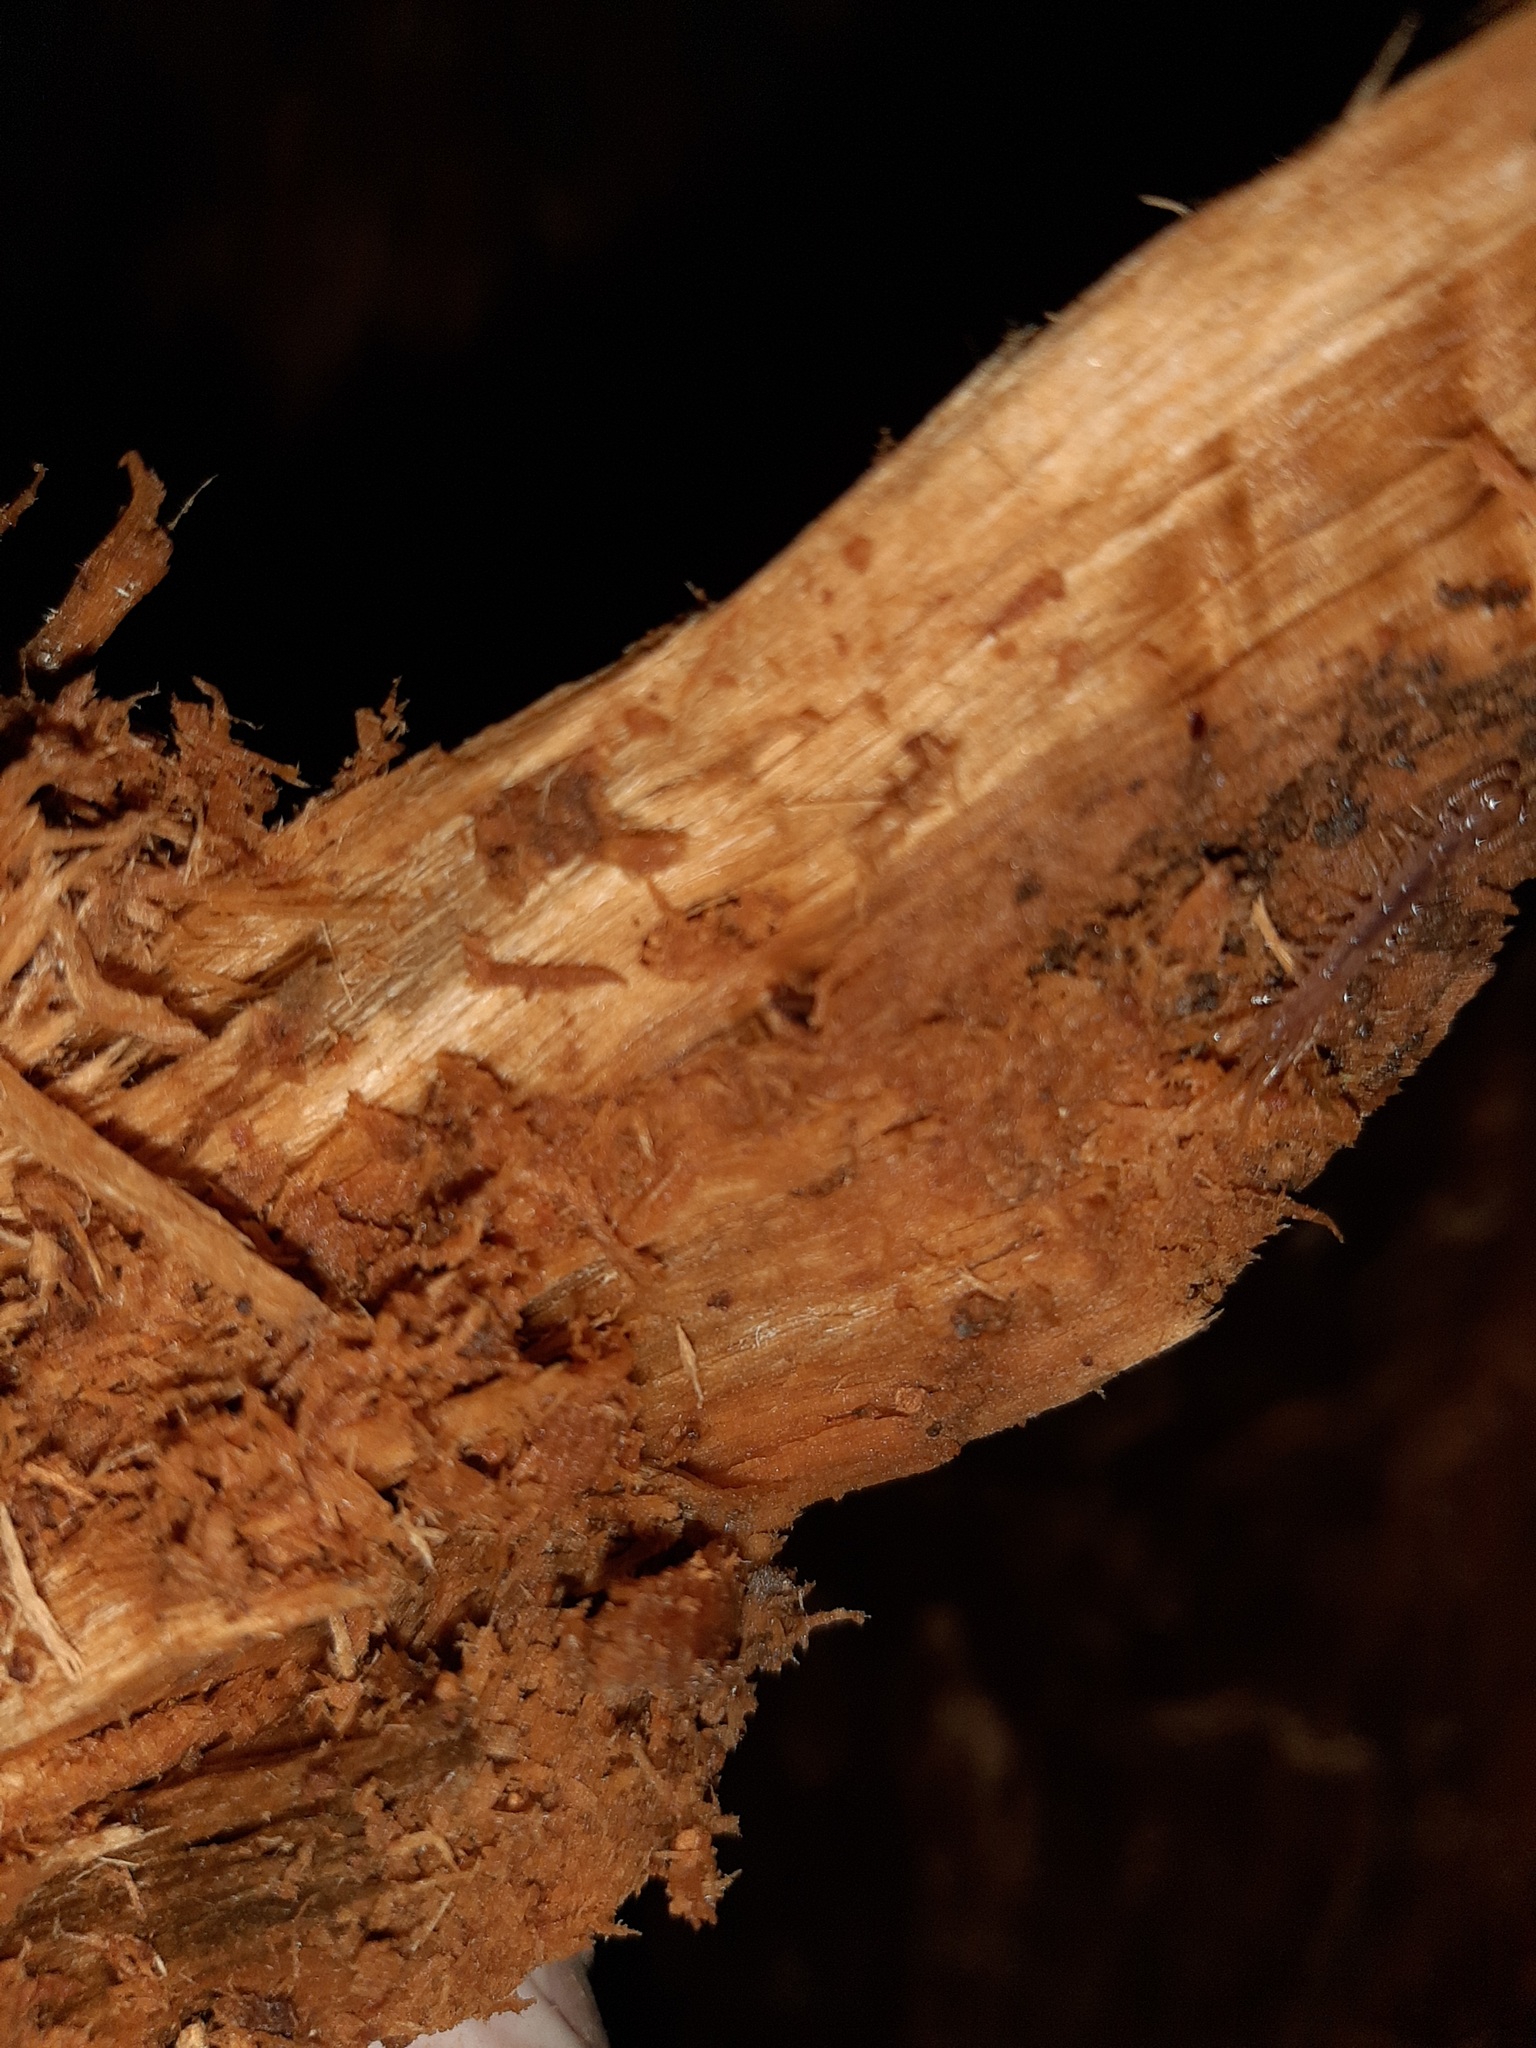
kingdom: Animalia
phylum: Arthropoda
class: Chilopoda
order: Lithobiomorpha
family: Lithobiidae
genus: Lithobius
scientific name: Lithobius forficatus
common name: Centipede
